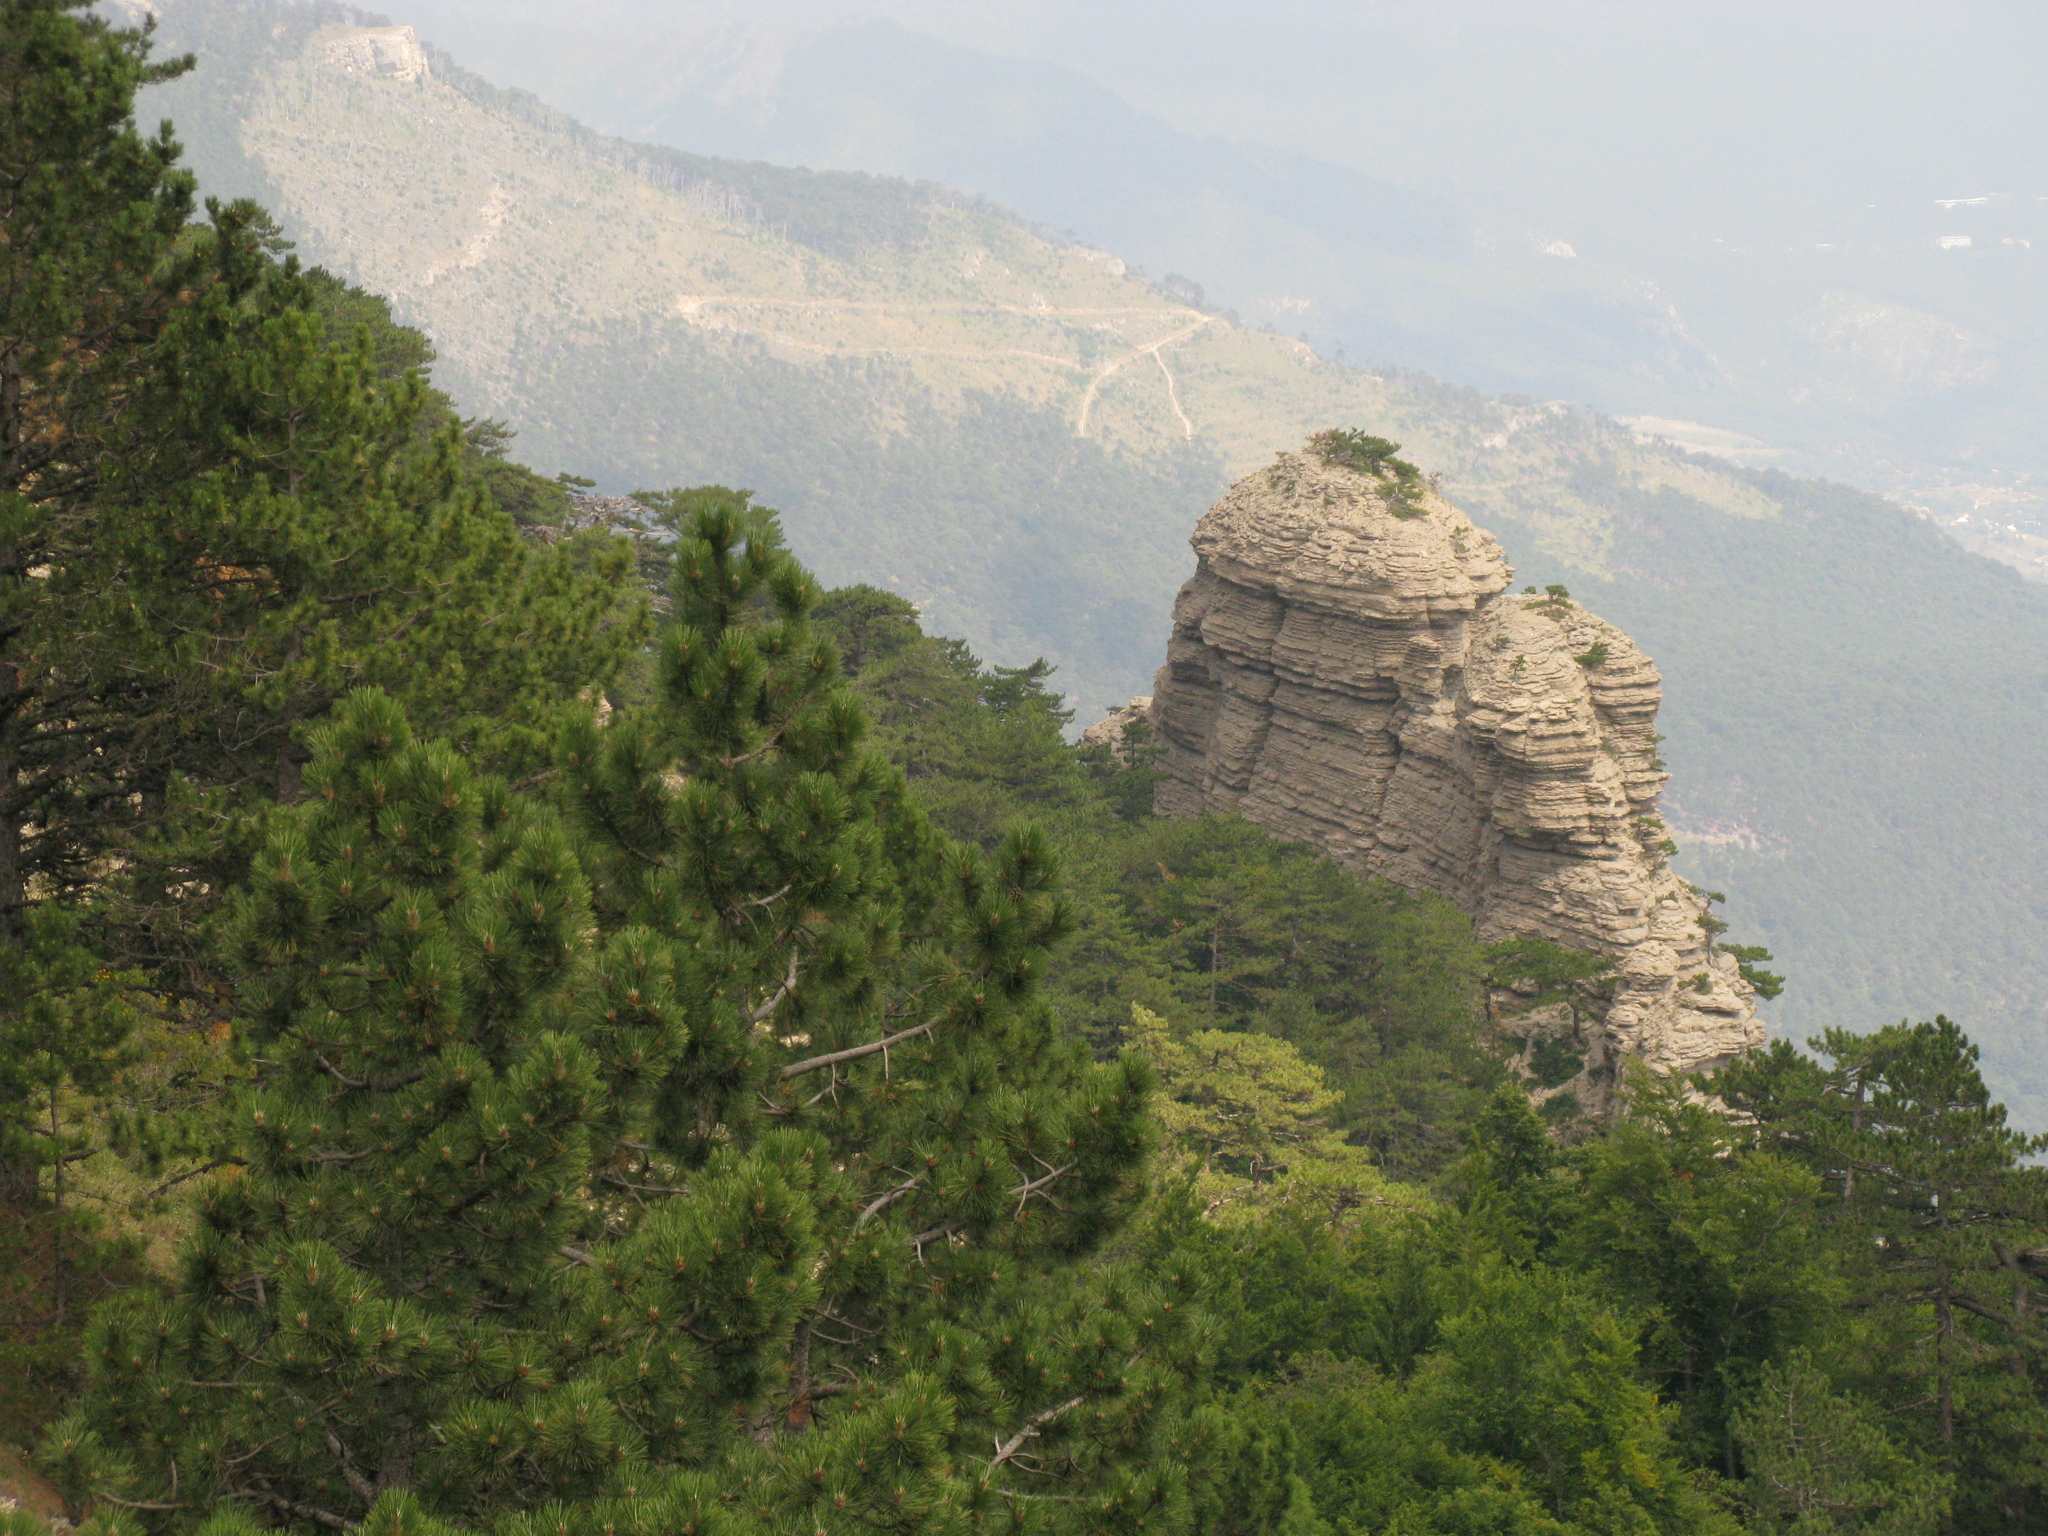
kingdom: Plantae
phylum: Tracheophyta
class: Pinopsida
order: Pinales
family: Pinaceae
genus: Pinus
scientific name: Pinus nigra
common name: Austrian pine
